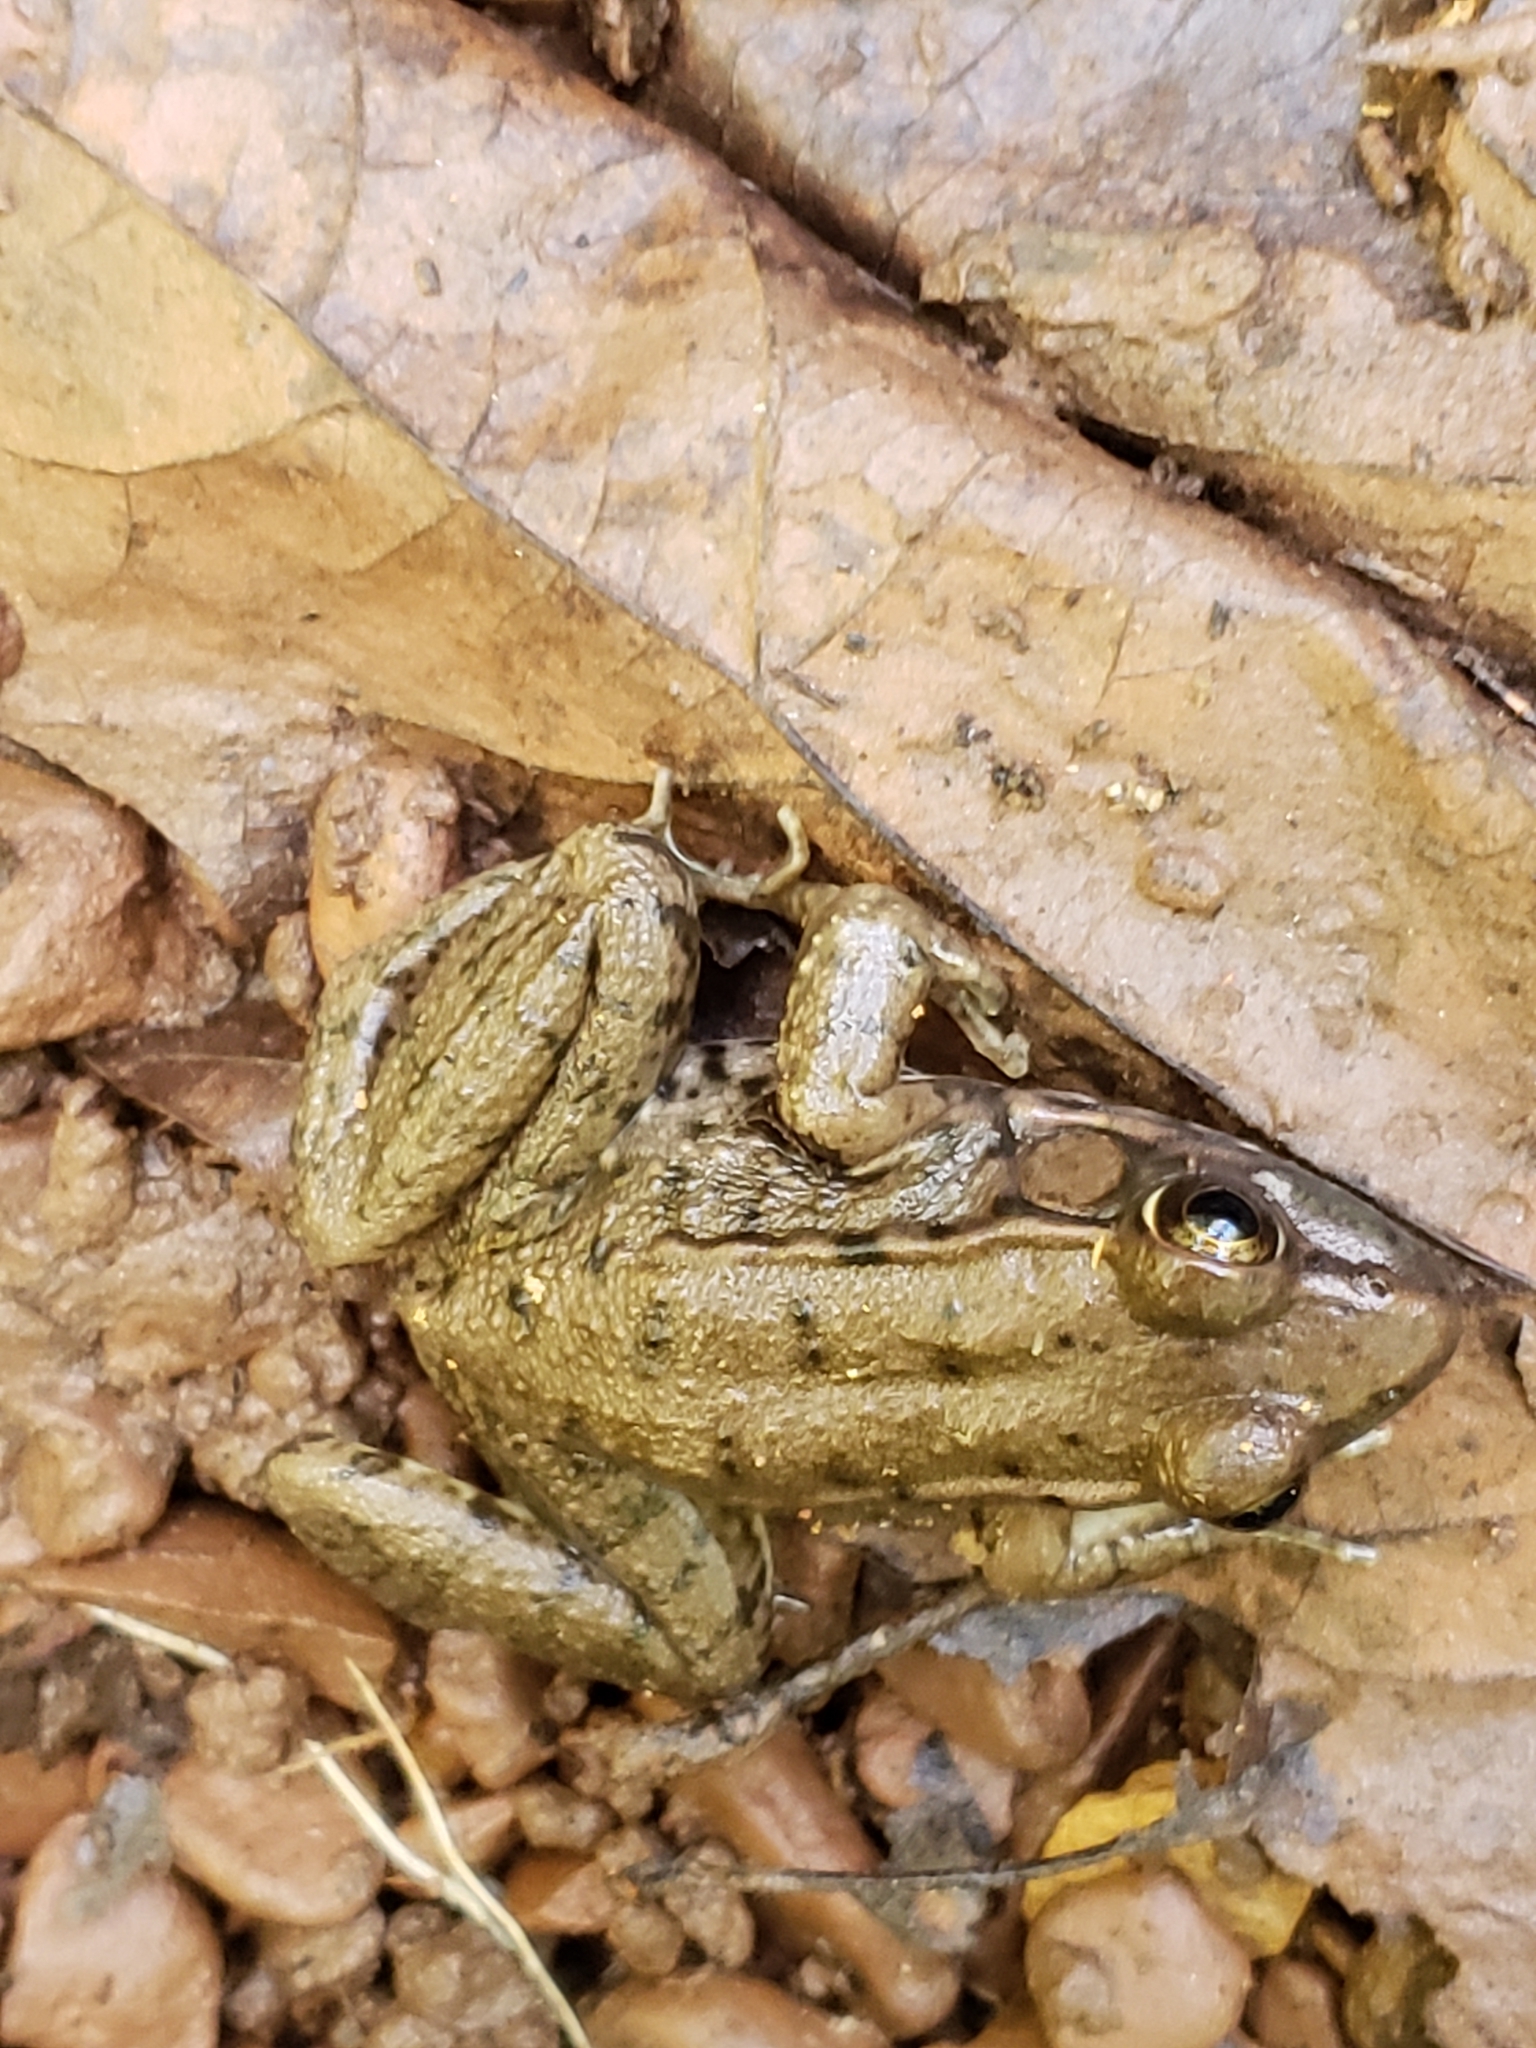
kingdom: Animalia
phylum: Chordata
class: Amphibia
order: Anura
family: Ranidae
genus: Lithobates
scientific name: Lithobates clamitans
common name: Green frog
